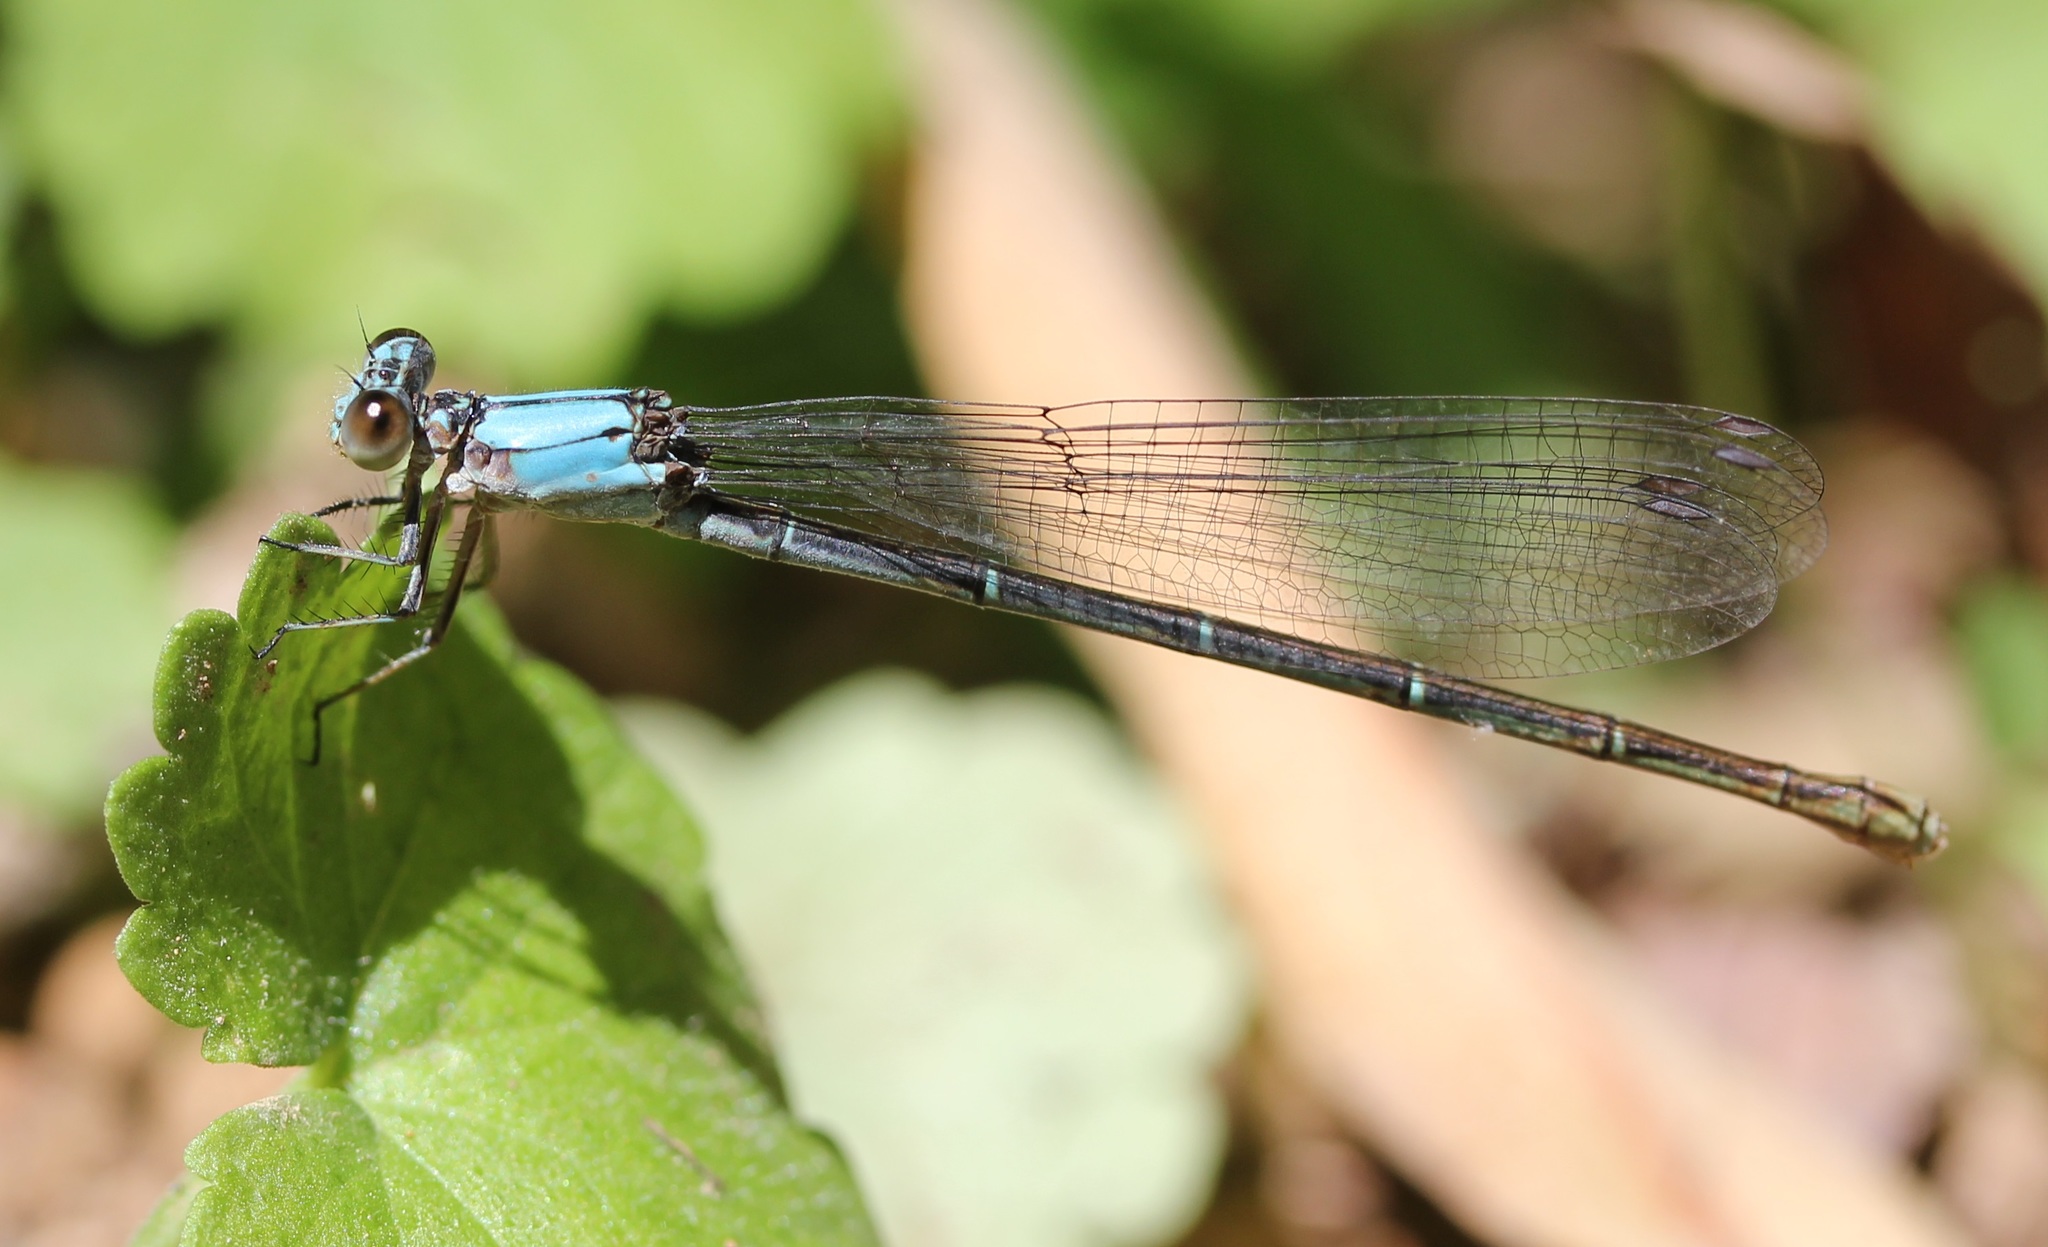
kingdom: Animalia
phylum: Arthropoda
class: Insecta
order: Odonata
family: Coenagrionidae
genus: Argia
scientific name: Argia moesta
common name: Powdered dancer
